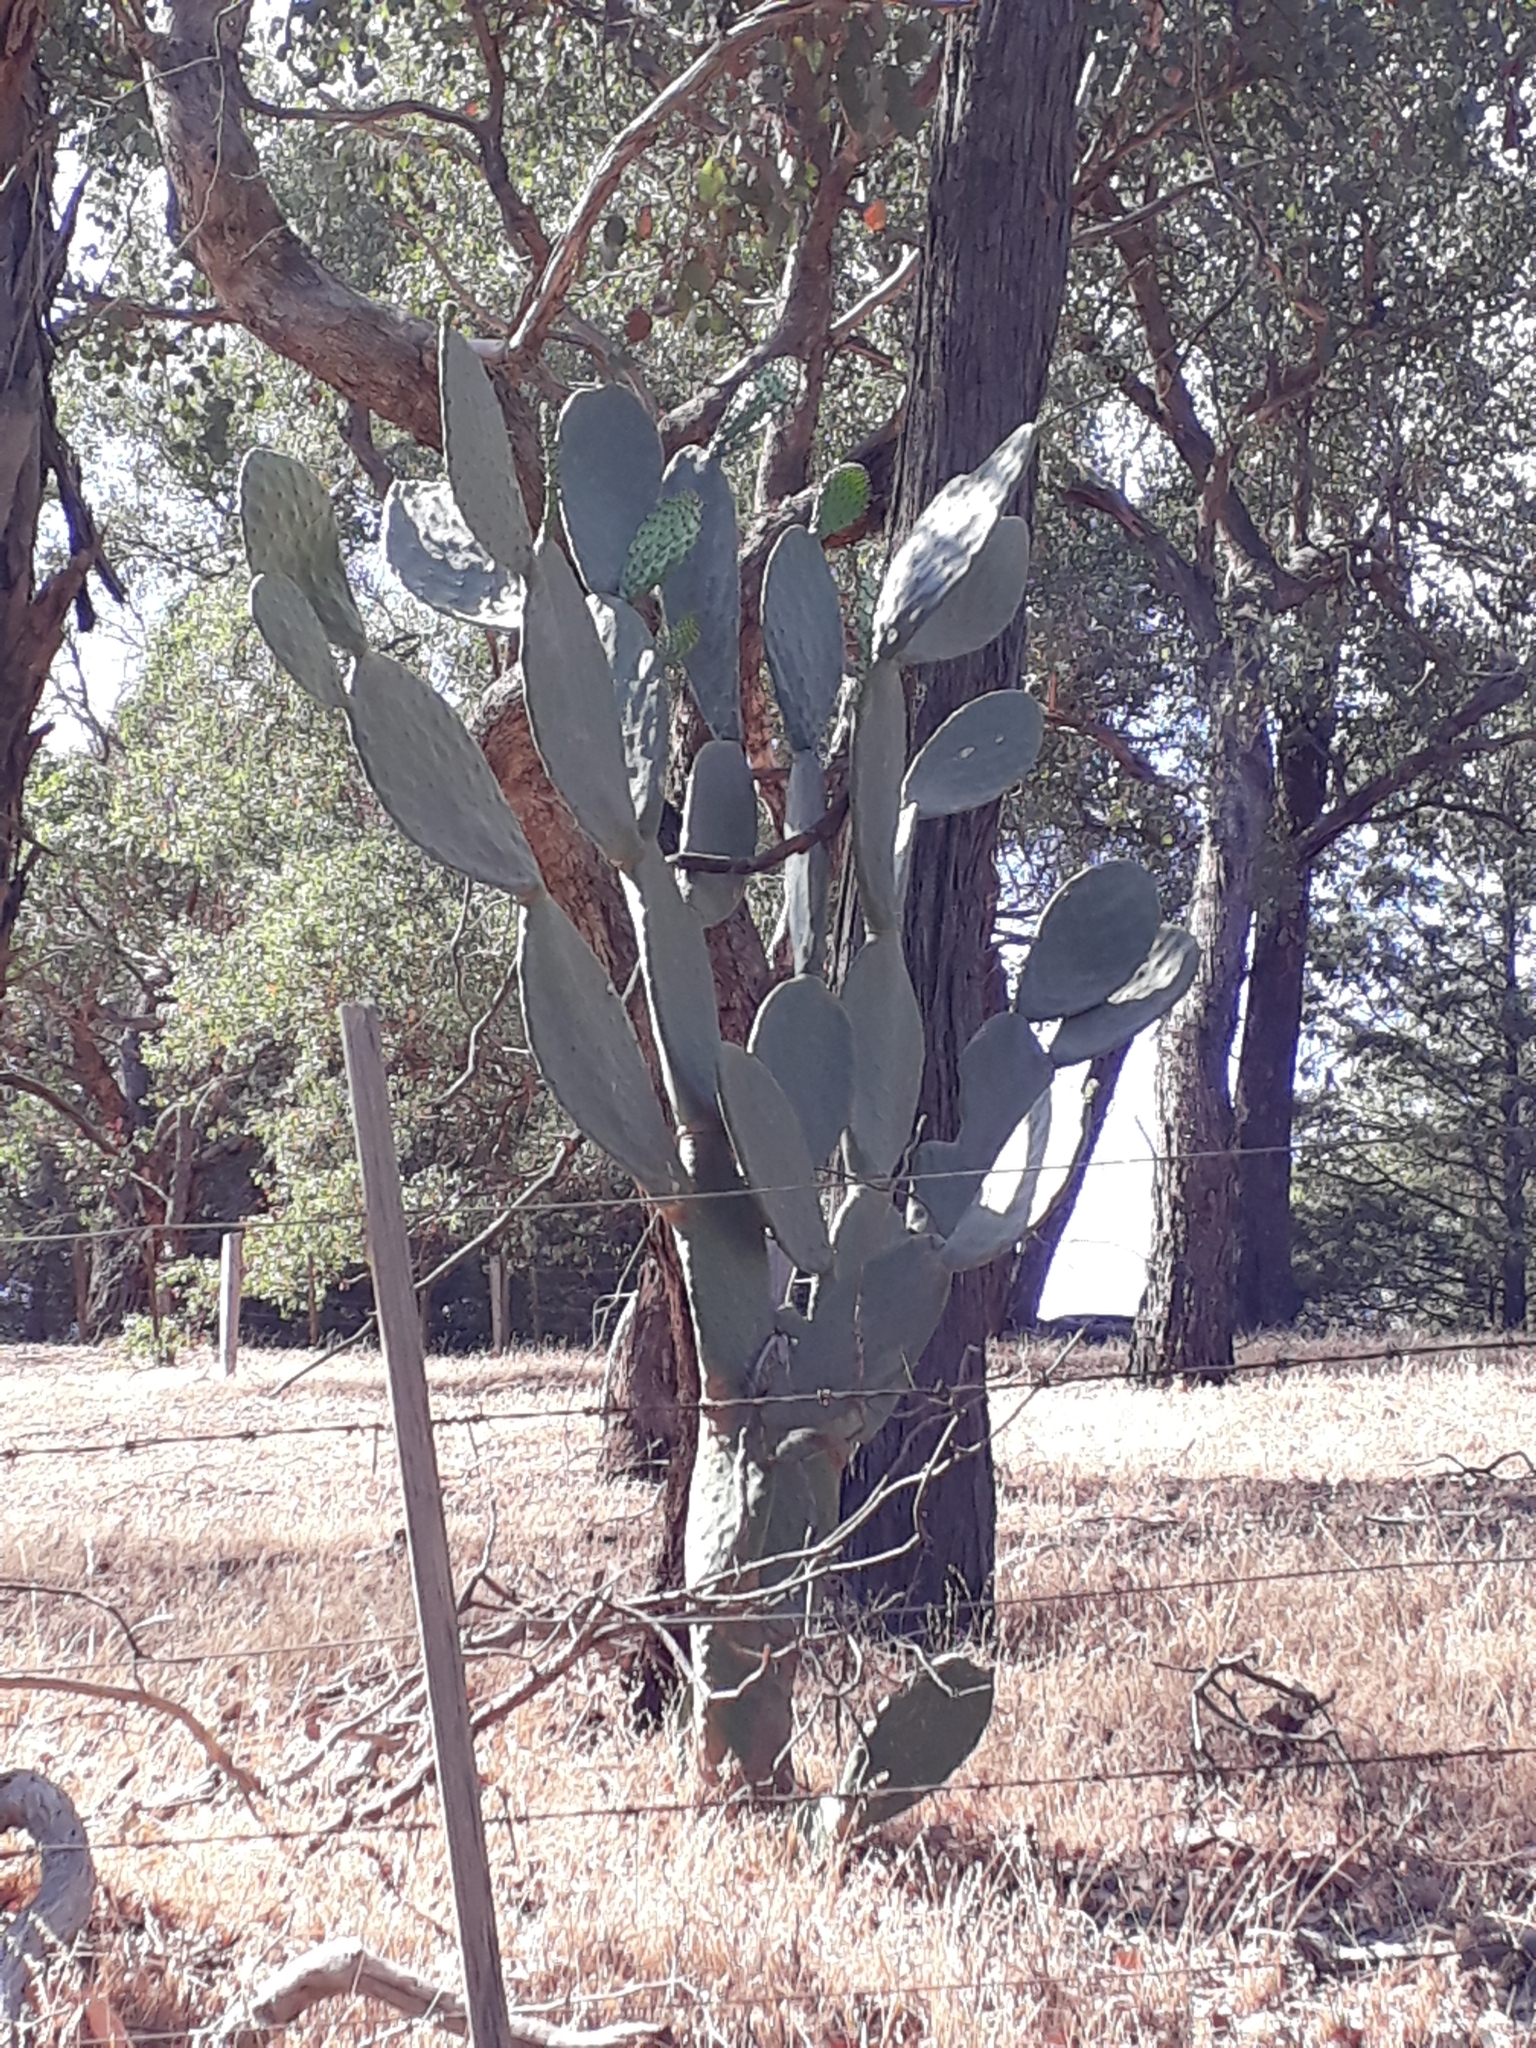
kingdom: Plantae
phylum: Tracheophyta
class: Magnoliopsida
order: Caryophyllales
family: Cactaceae
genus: Opuntia
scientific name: Opuntia ficus-indica
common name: Barbary fig
